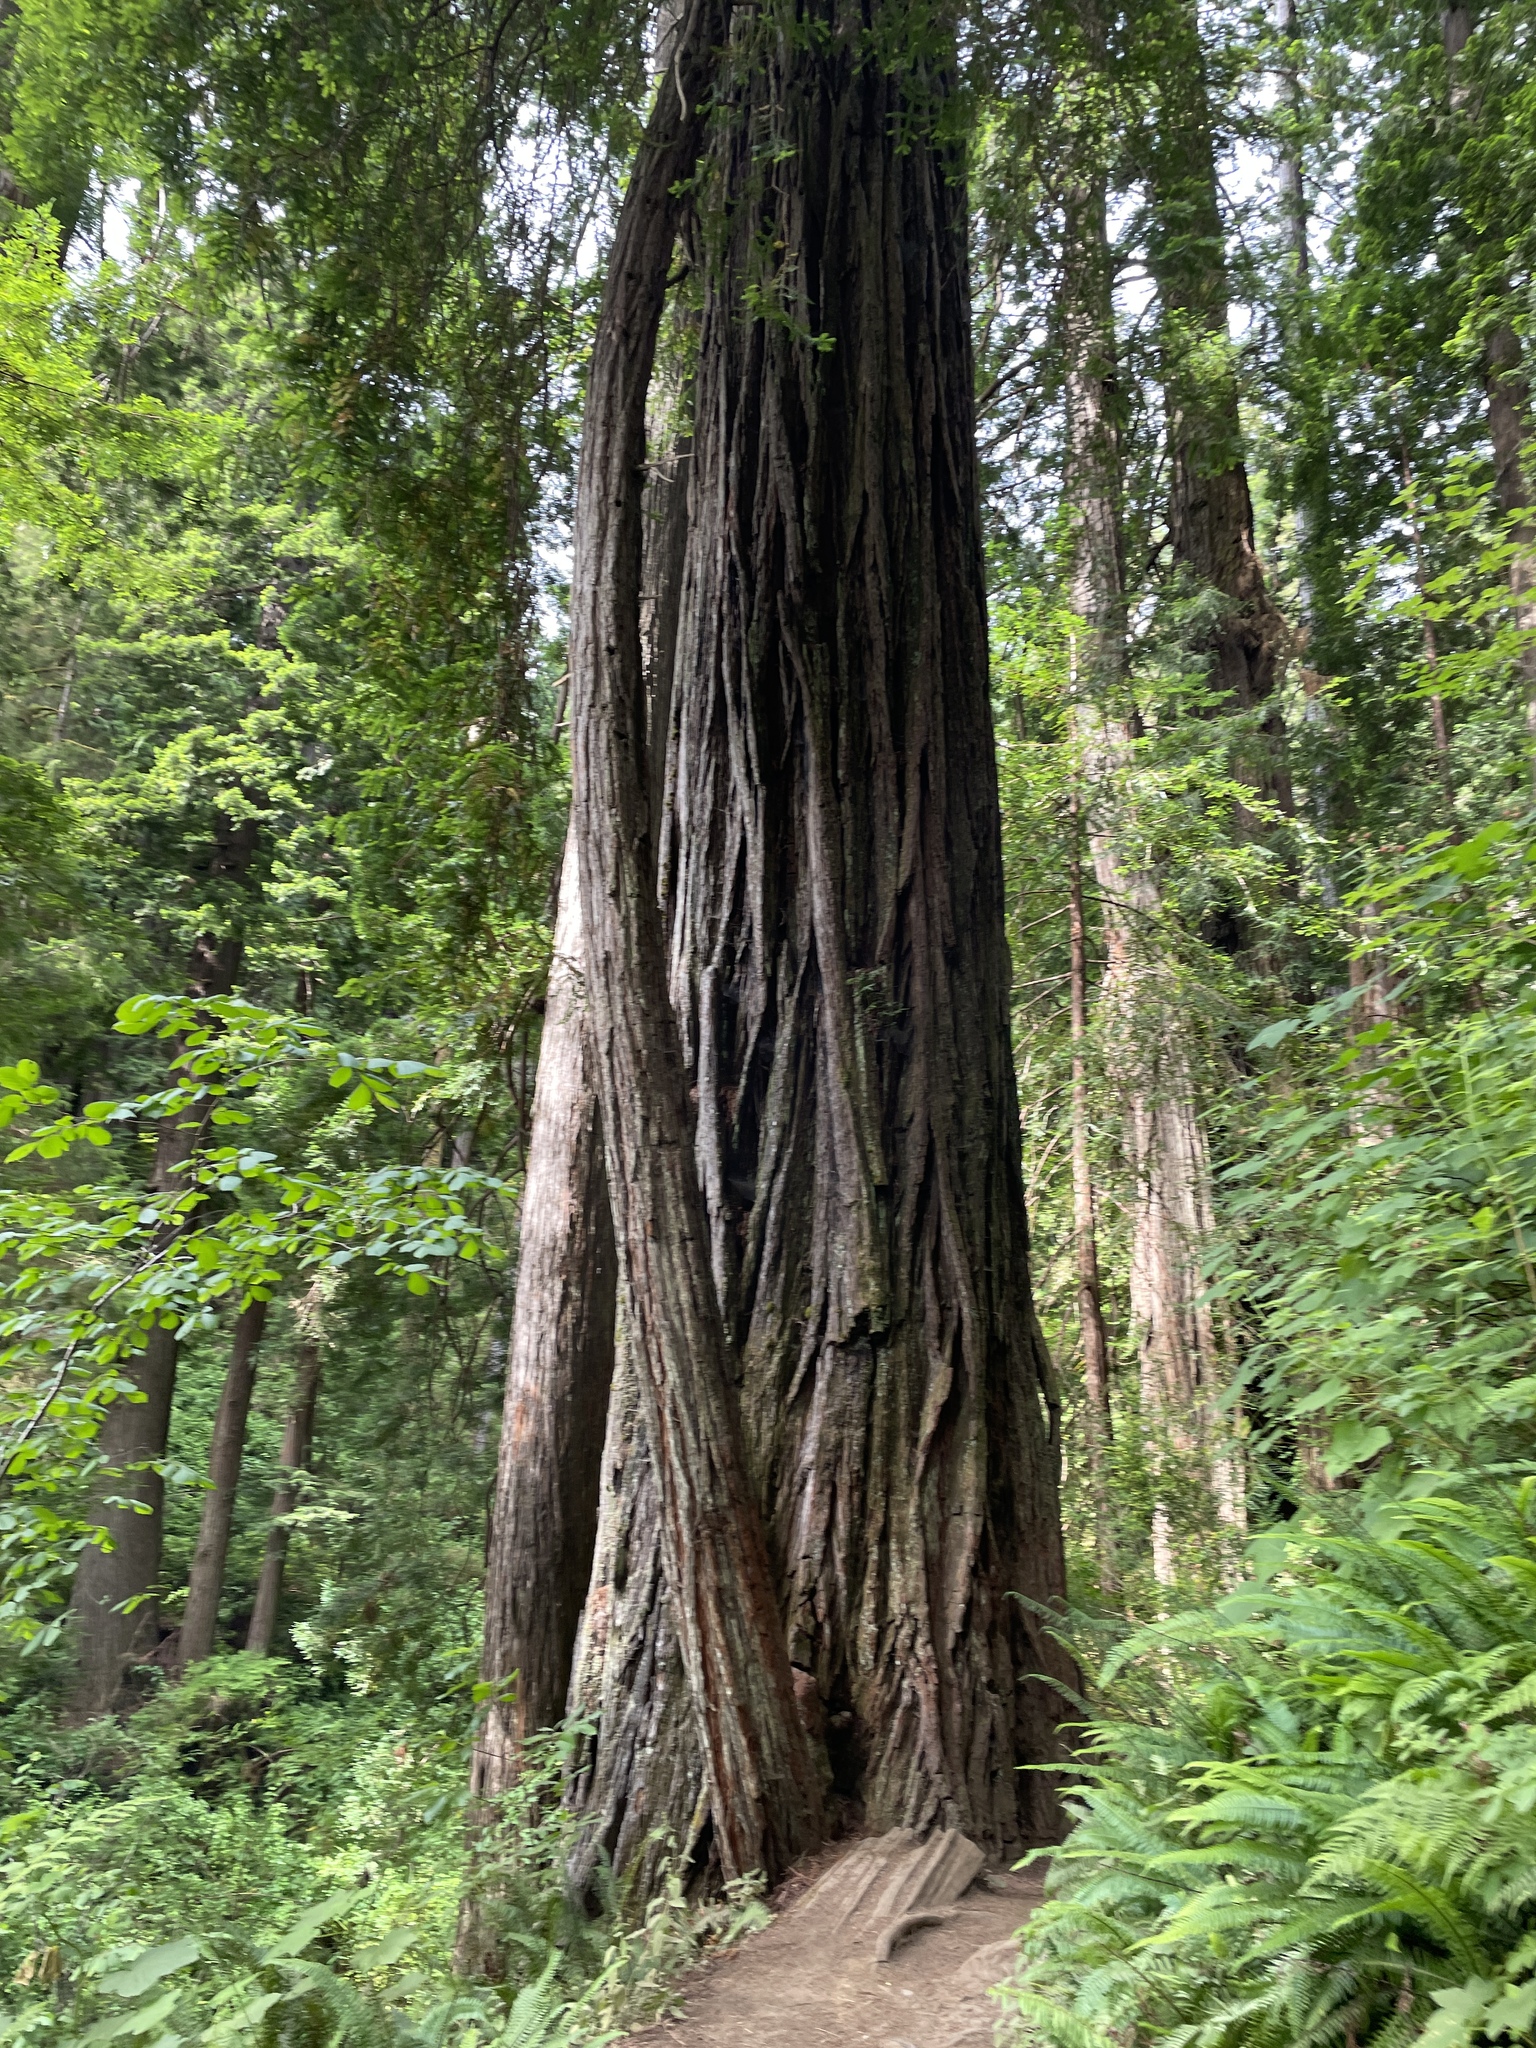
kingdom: Plantae
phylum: Tracheophyta
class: Pinopsida
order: Pinales
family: Cupressaceae
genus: Sequoia
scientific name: Sequoia sempervirens
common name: Coast redwood
